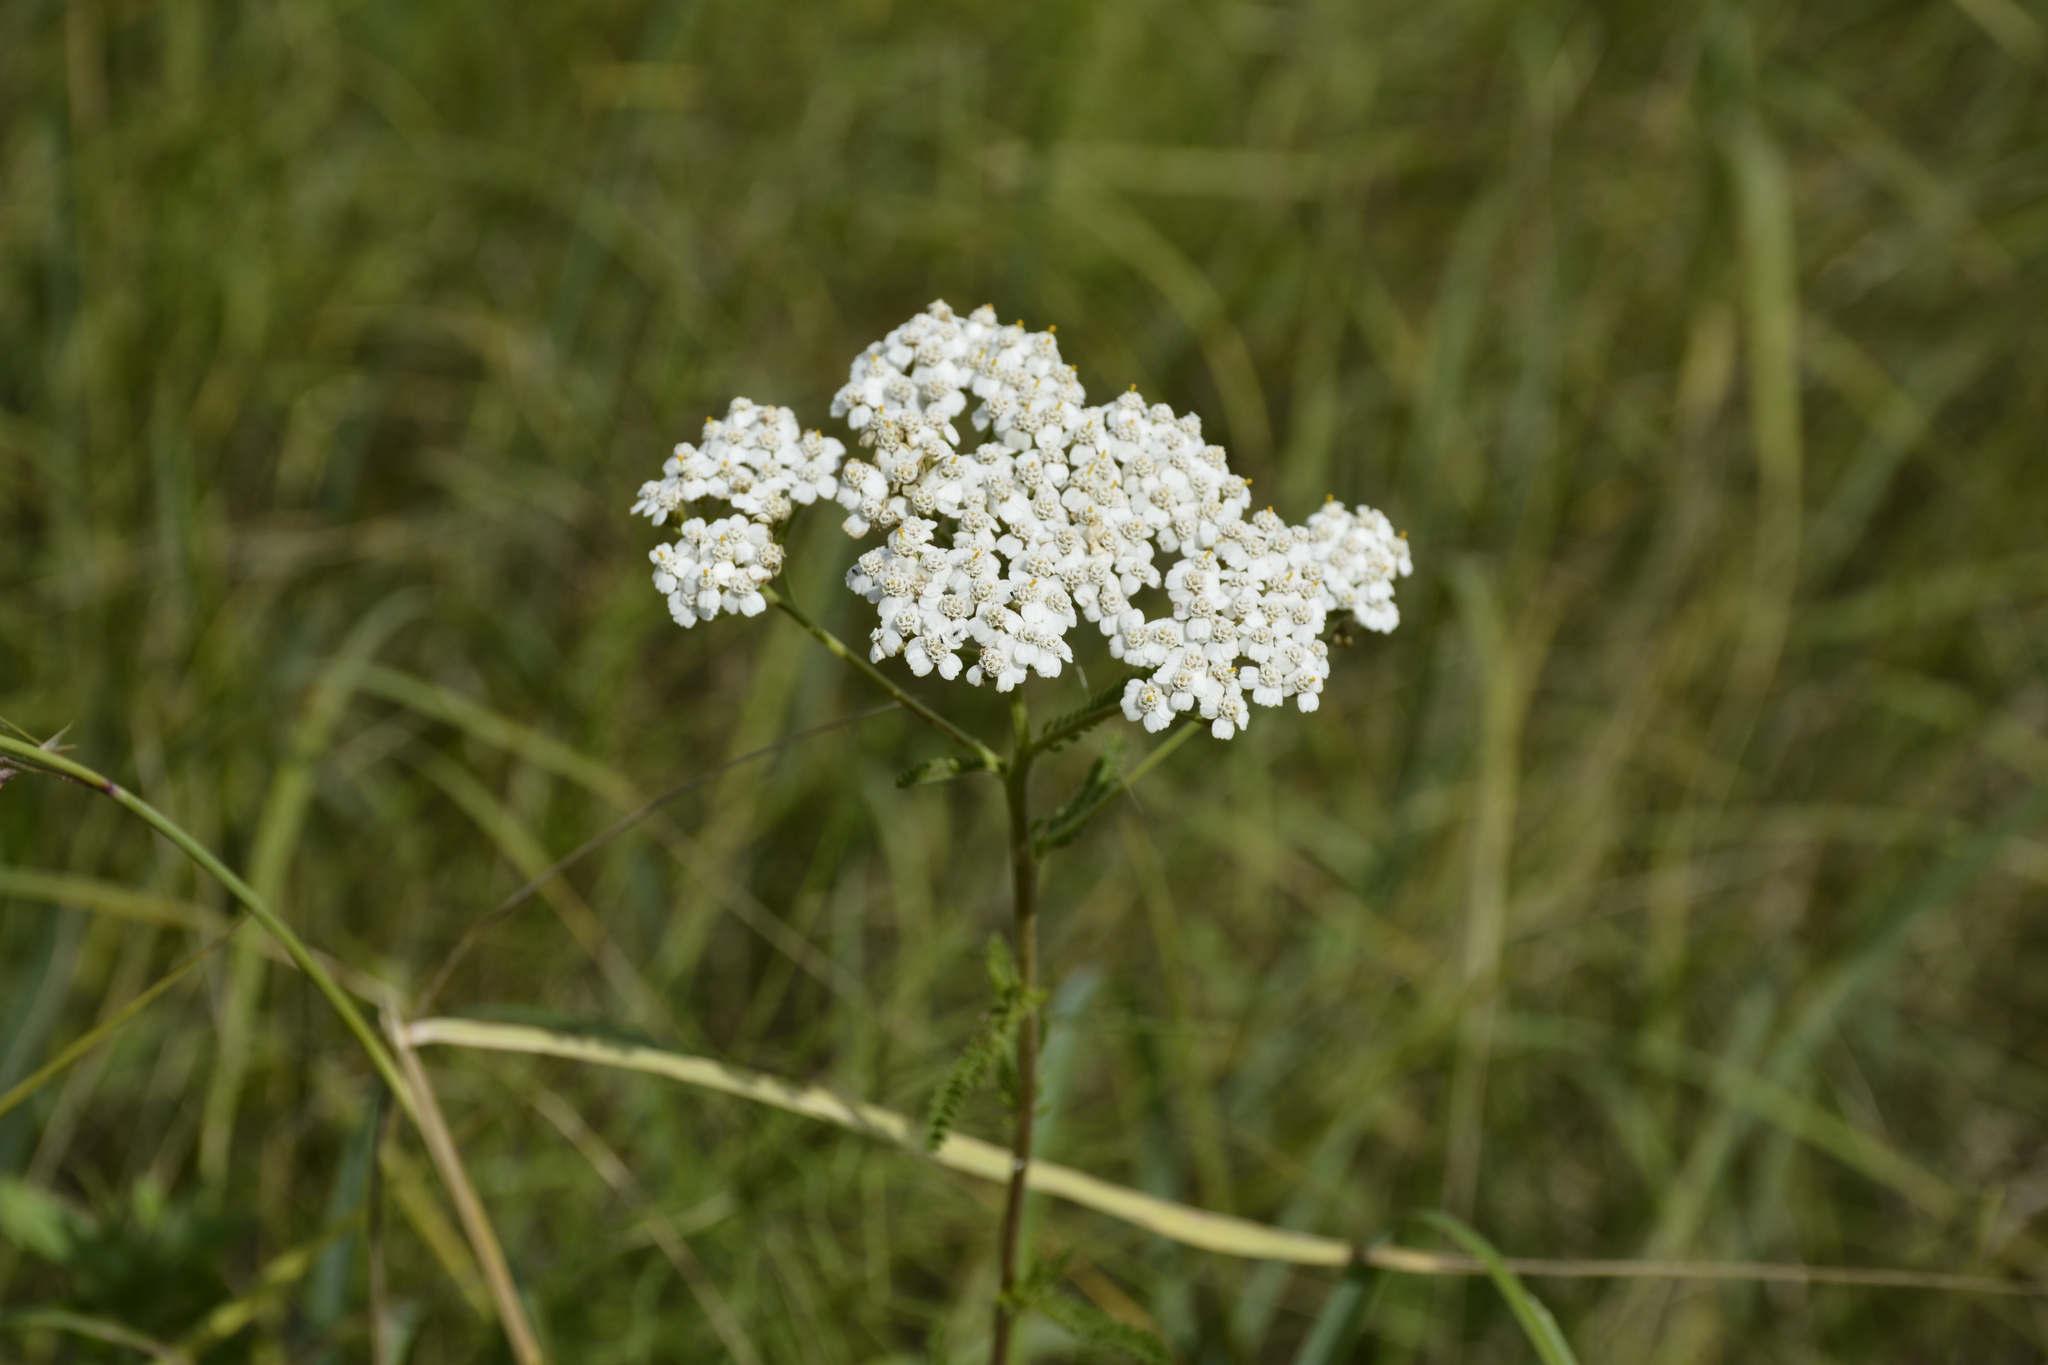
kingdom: Plantae
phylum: Tracheophyta
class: Magnoliopsida
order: Asterales
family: Asteraceae
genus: Achillea
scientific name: Achillea millefolium
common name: Yarrow
